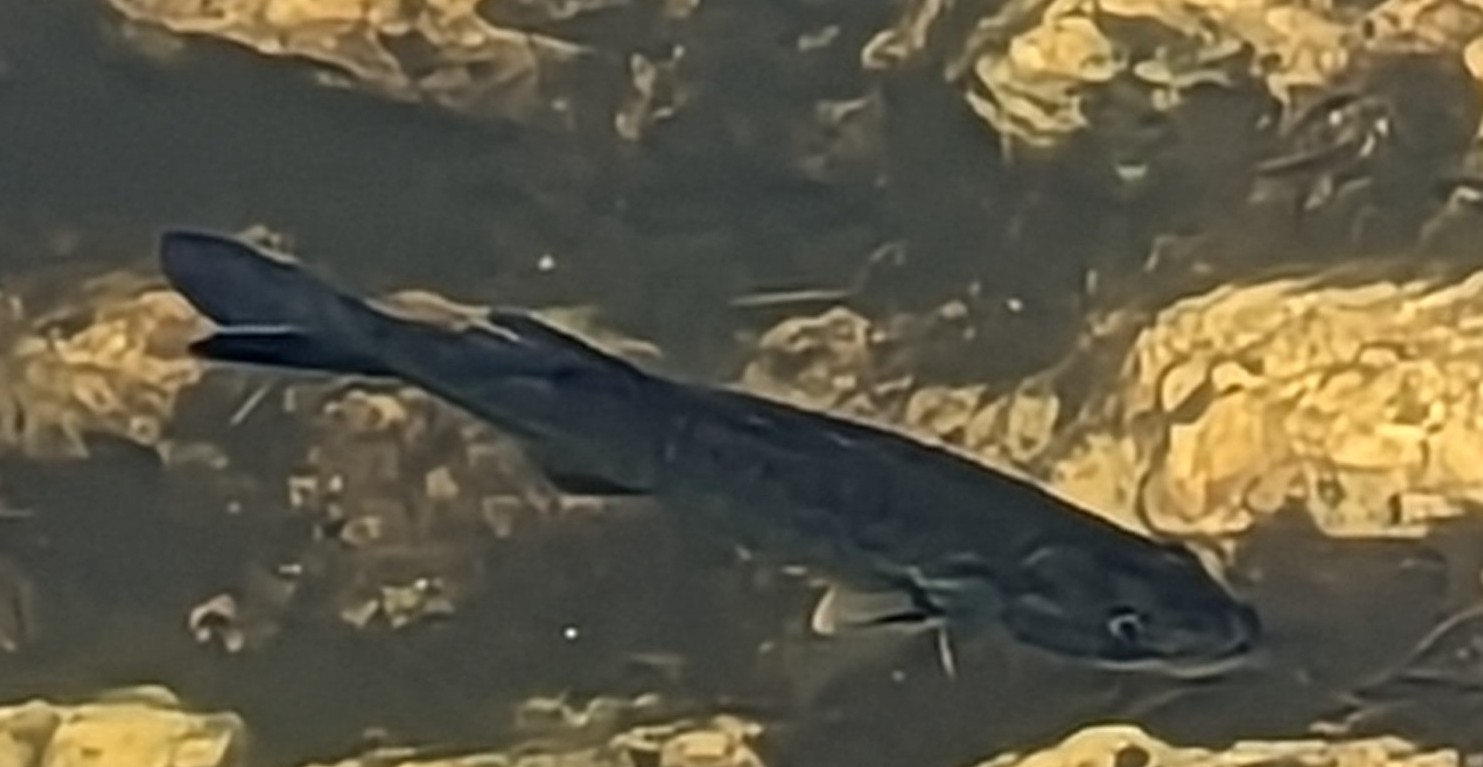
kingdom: Animalia
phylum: Chordata
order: Perciformes
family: Centrarchidae
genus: Micropterus
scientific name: Micropterus salmoides
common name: Largemouth bass
